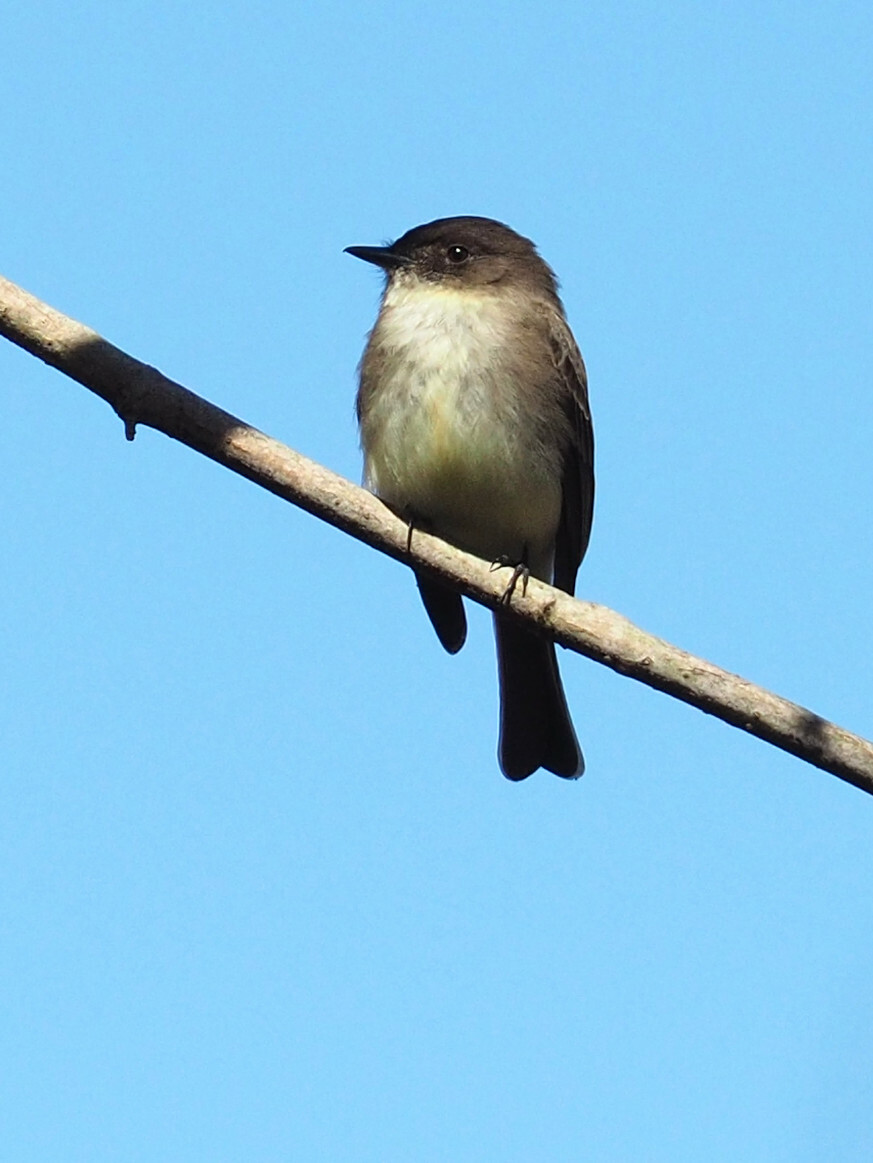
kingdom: Animalia
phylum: Chordata
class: Aves
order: Passeriformes
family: Tyrannidae
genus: Sayornis
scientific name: Sayornis phoebe
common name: Eastern phoebe
